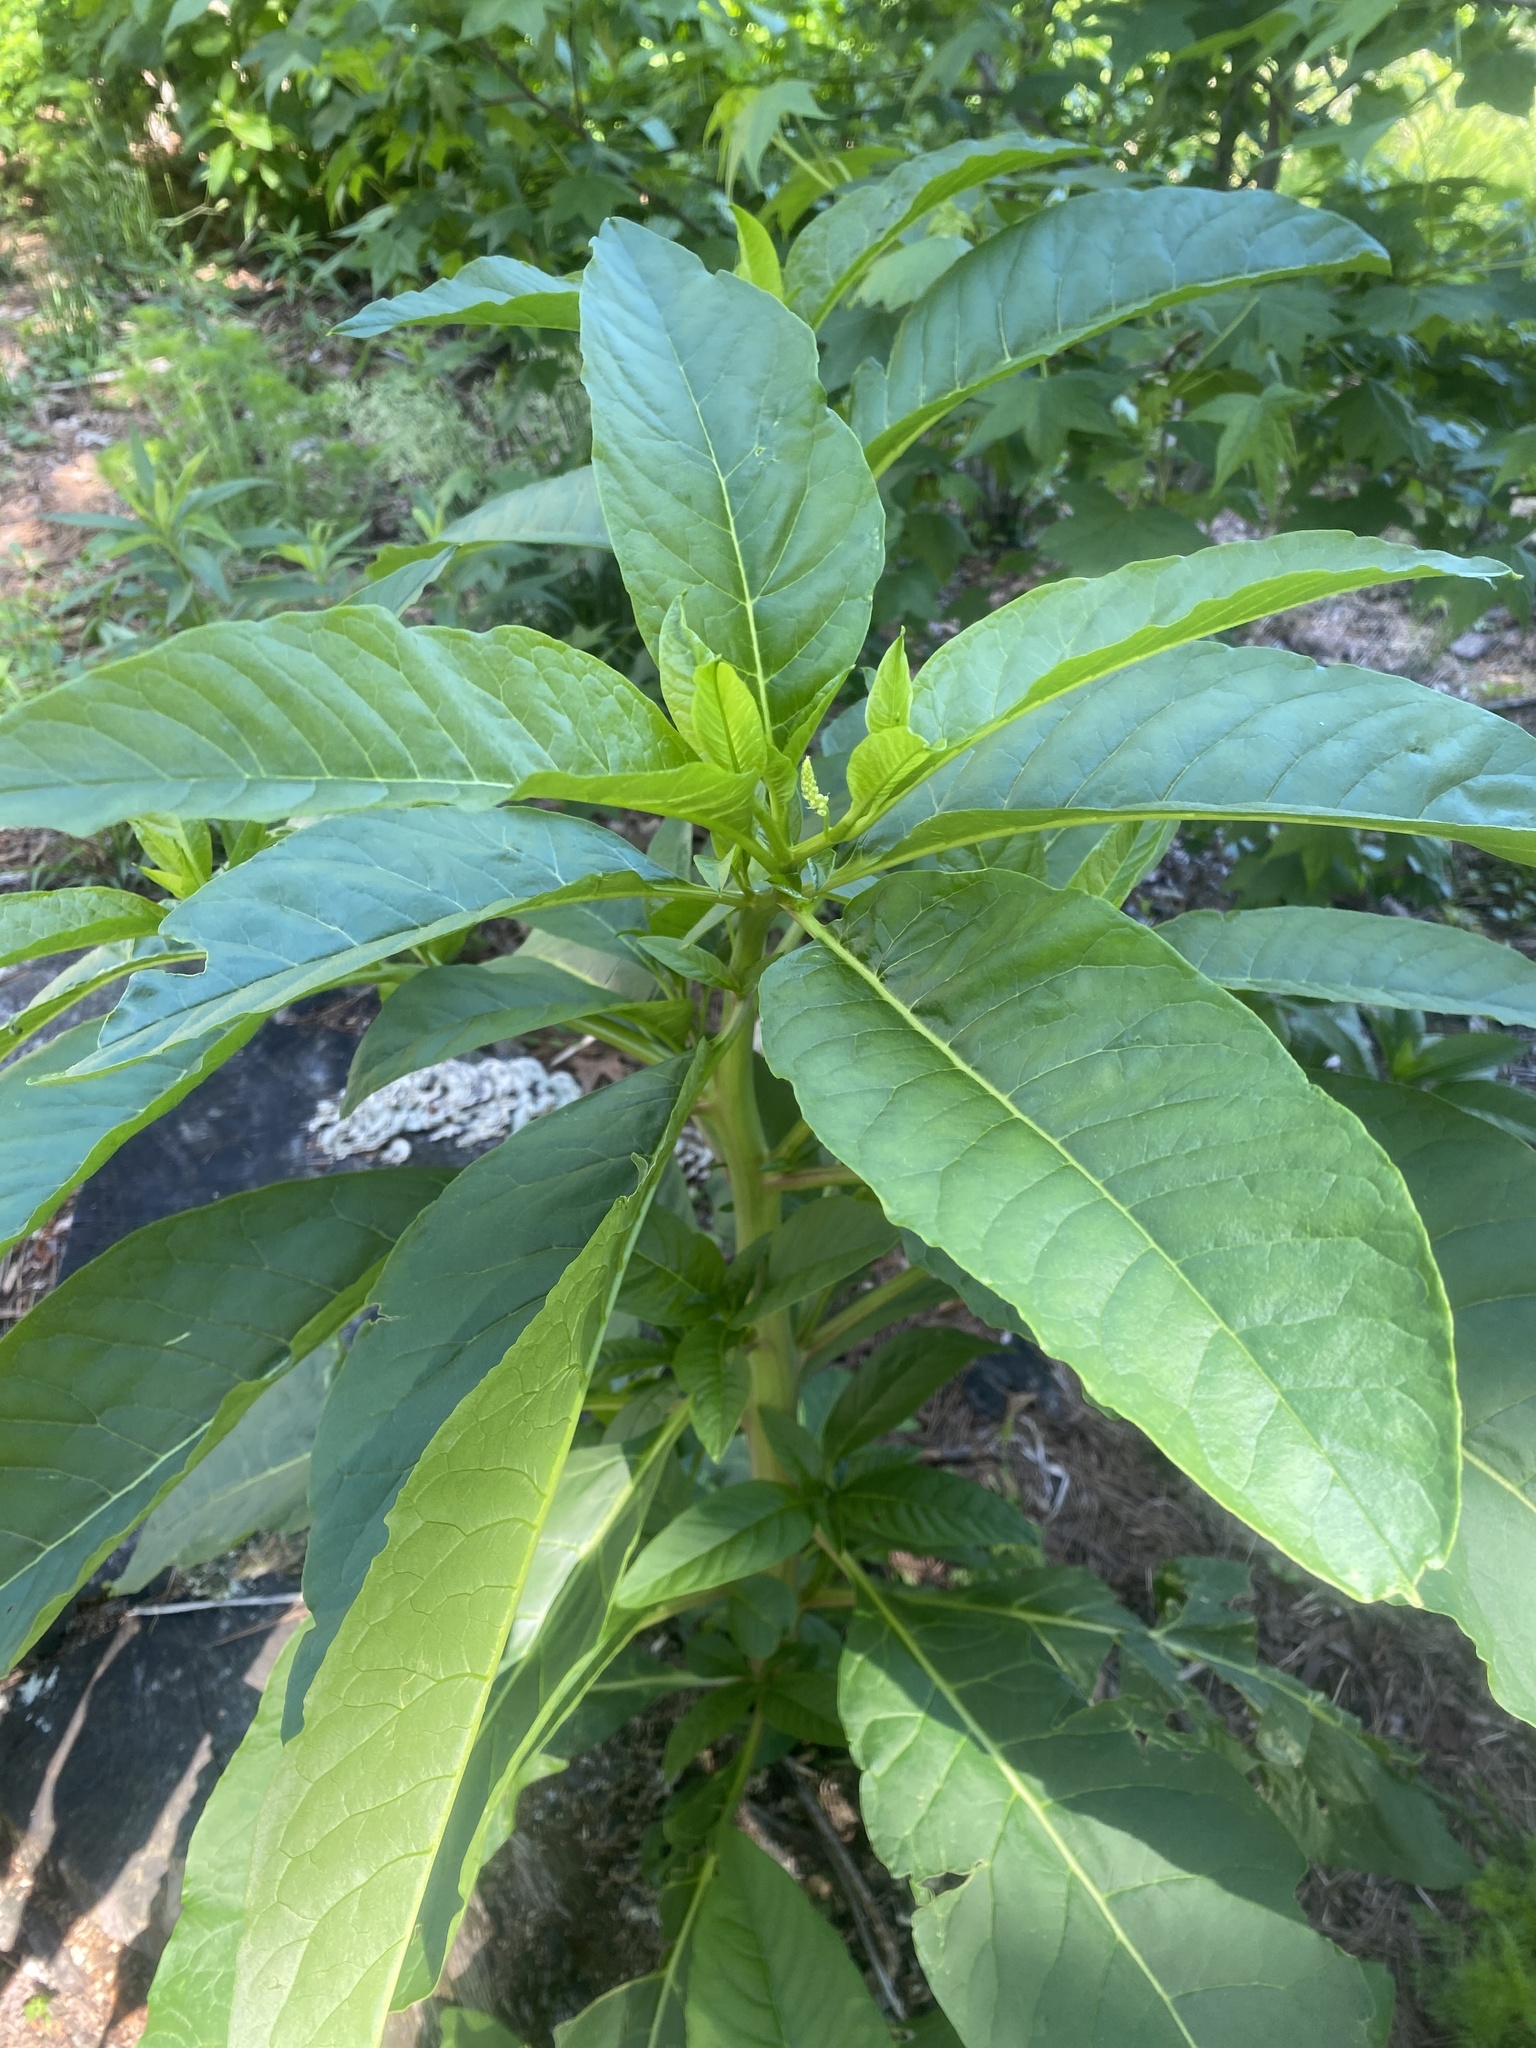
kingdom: Plantae
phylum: Tracheophyta
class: Magnoliopsida
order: Caryophyllales
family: Phytolaccaceae
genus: Phytolacca
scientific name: Phytolacca americana
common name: American pokeweed
